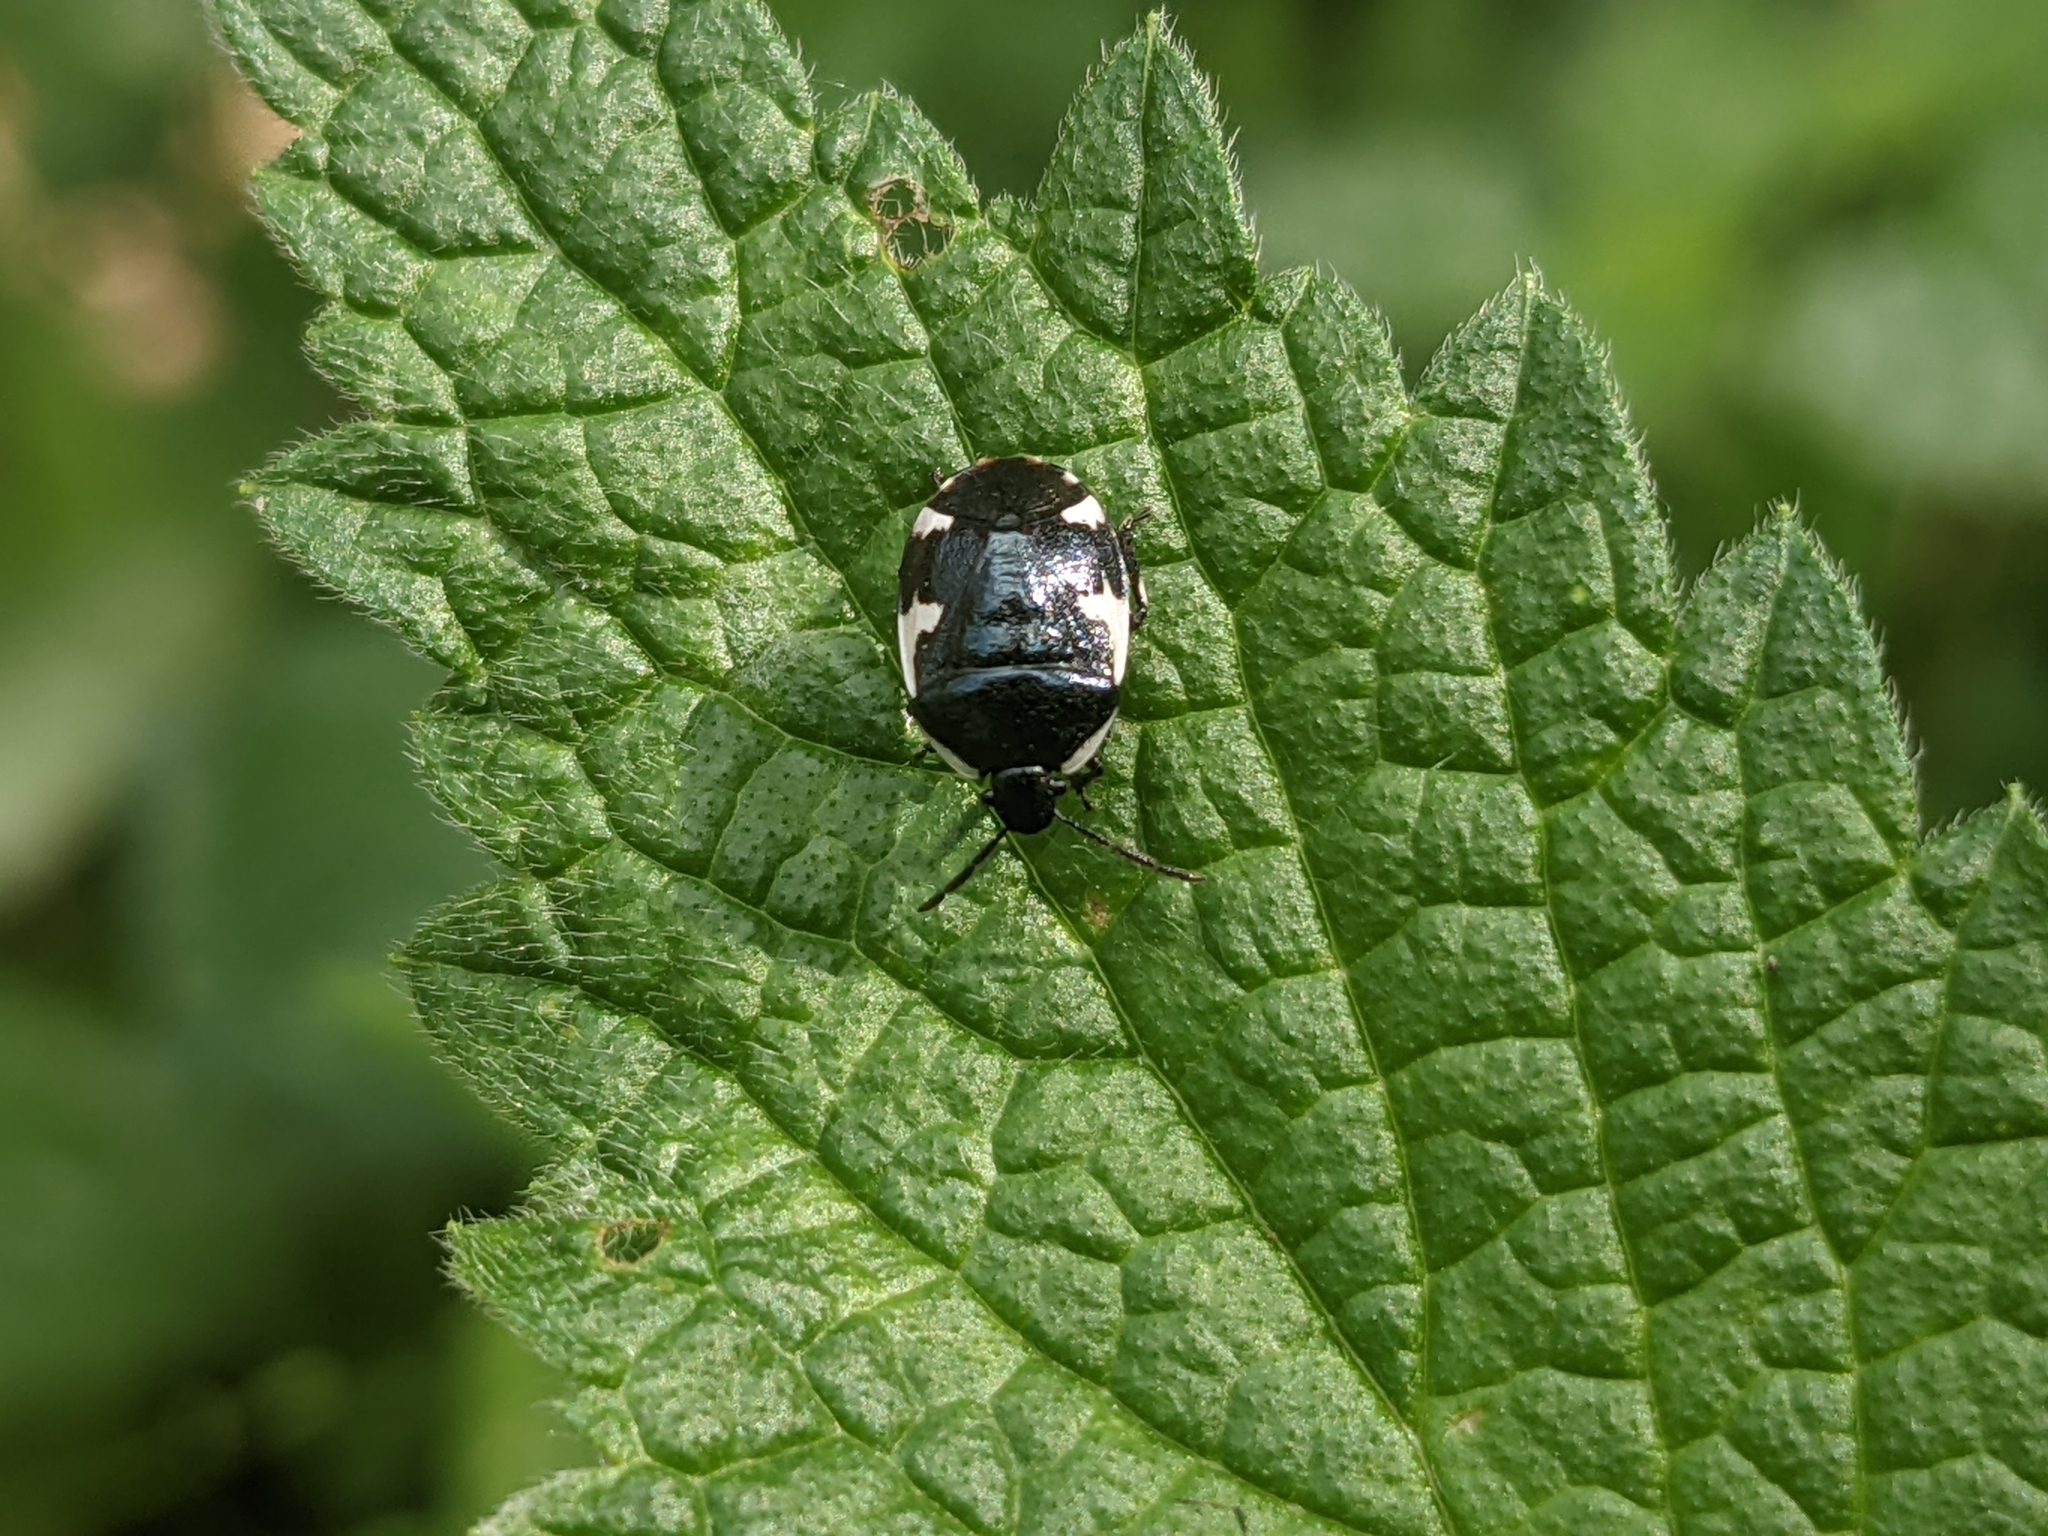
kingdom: Animalia
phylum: Arthropoda
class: Insecta
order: Hemiptera
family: Cydnidae
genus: Tritomegas
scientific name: Tritomegas sexmaculatus
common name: Rambur's pied shieldbug
